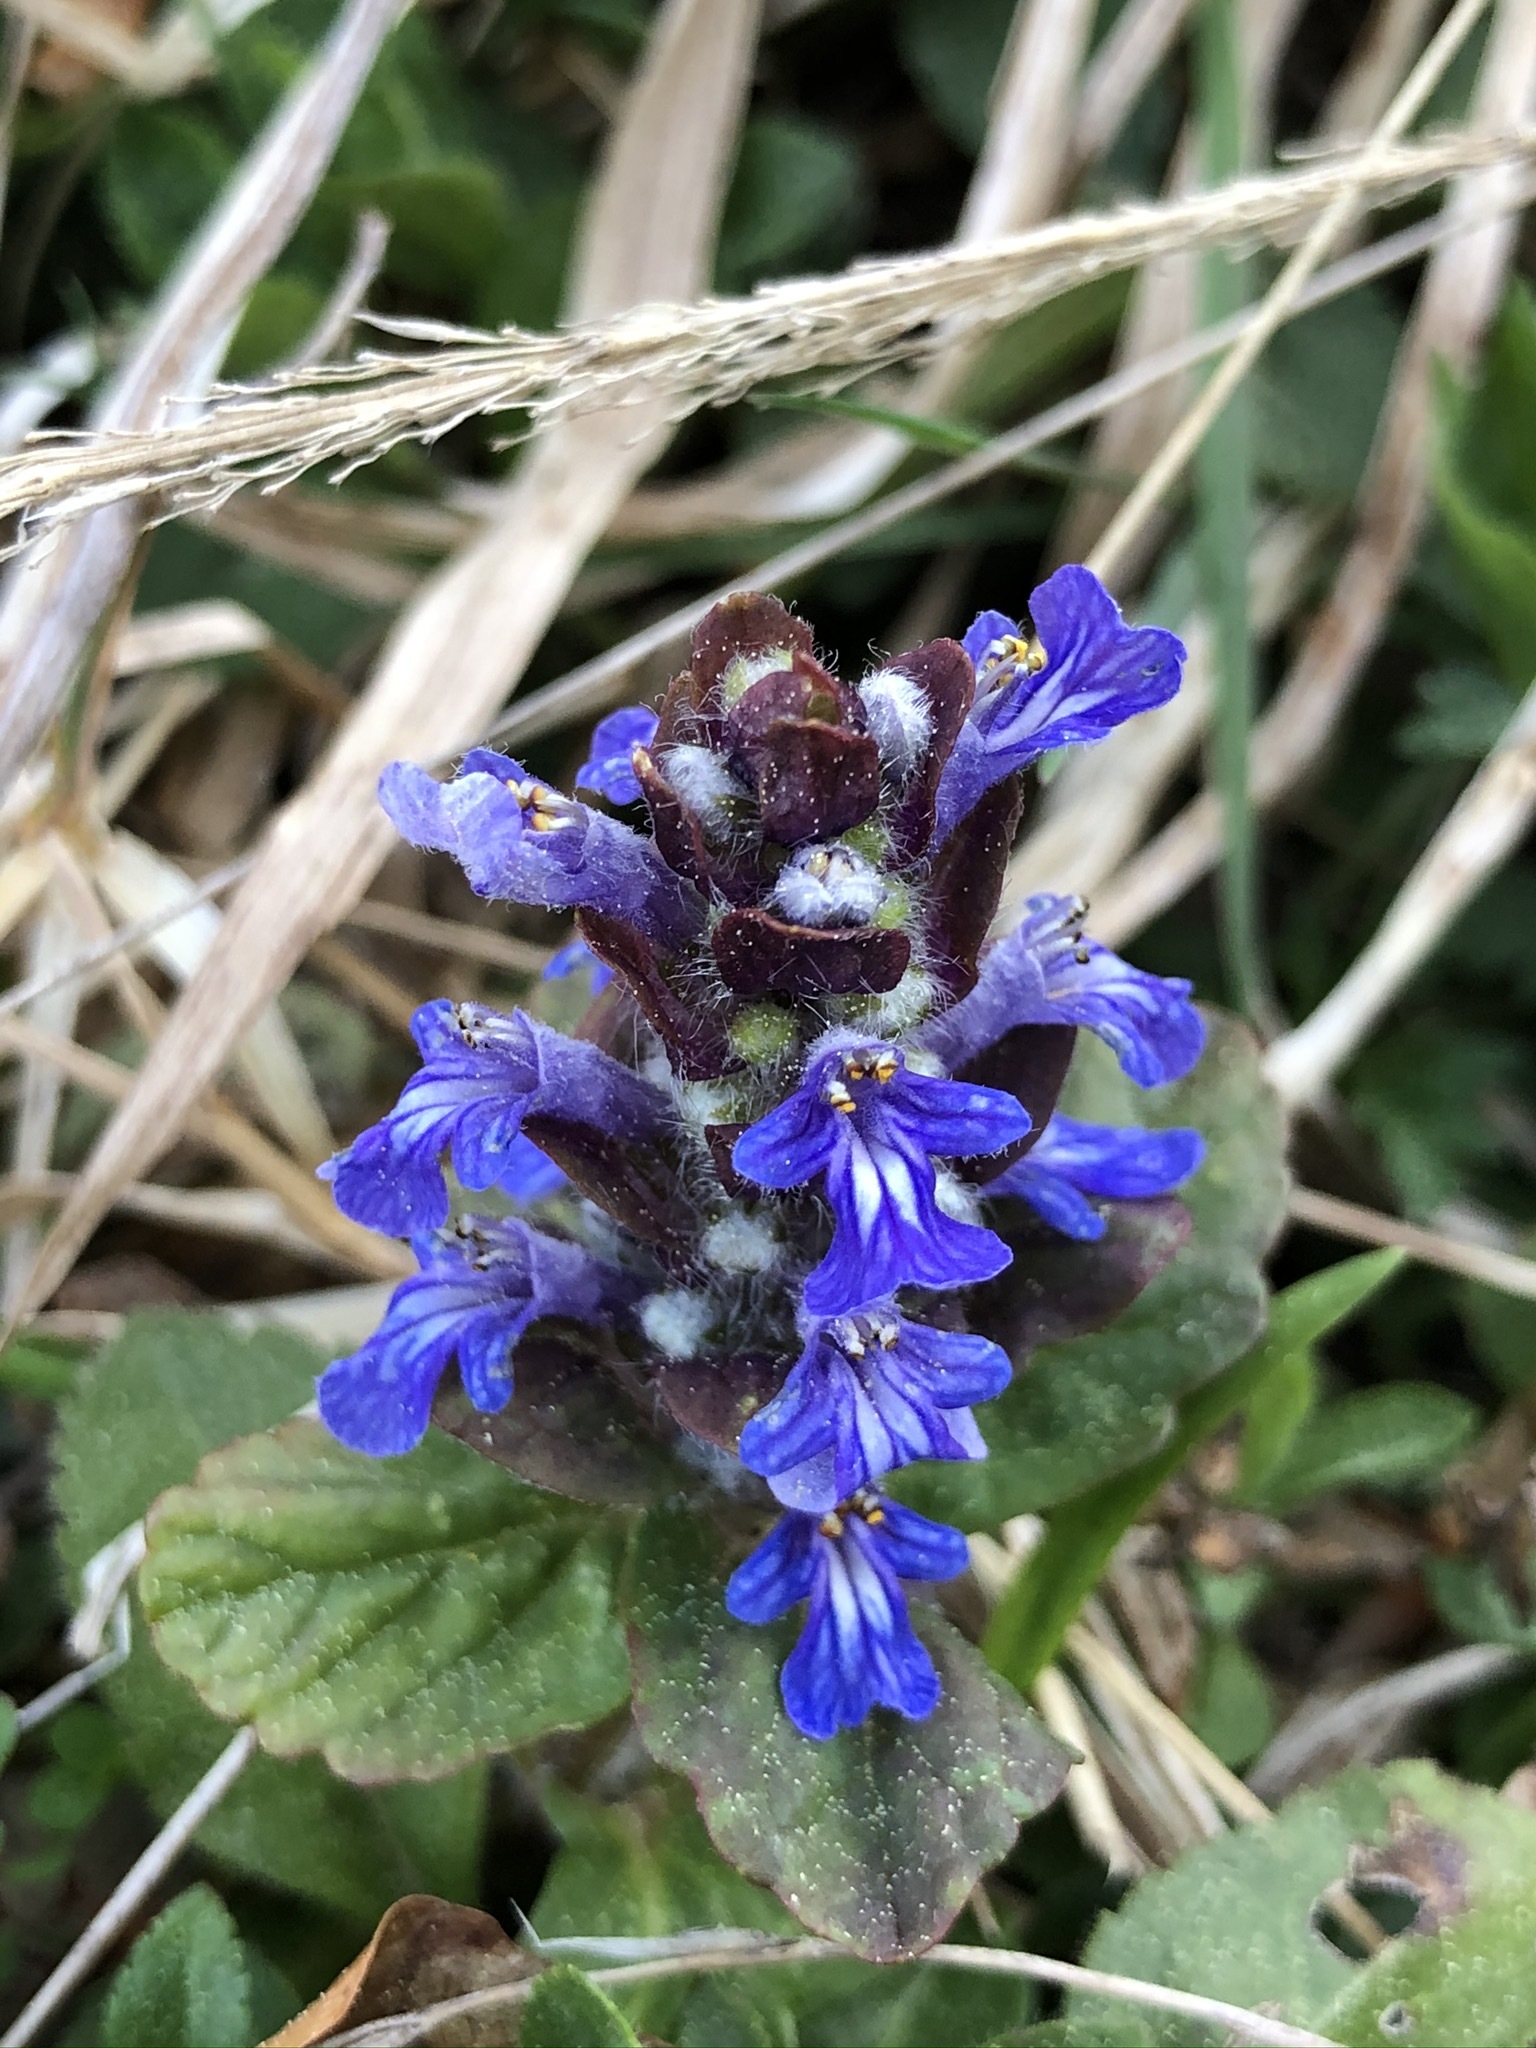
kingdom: Plantae
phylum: Tracheophyta
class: Magnoliopsida
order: Lamiales
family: Lamiaceae
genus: Ajuga
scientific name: Ajuga reptans
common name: Bugle
